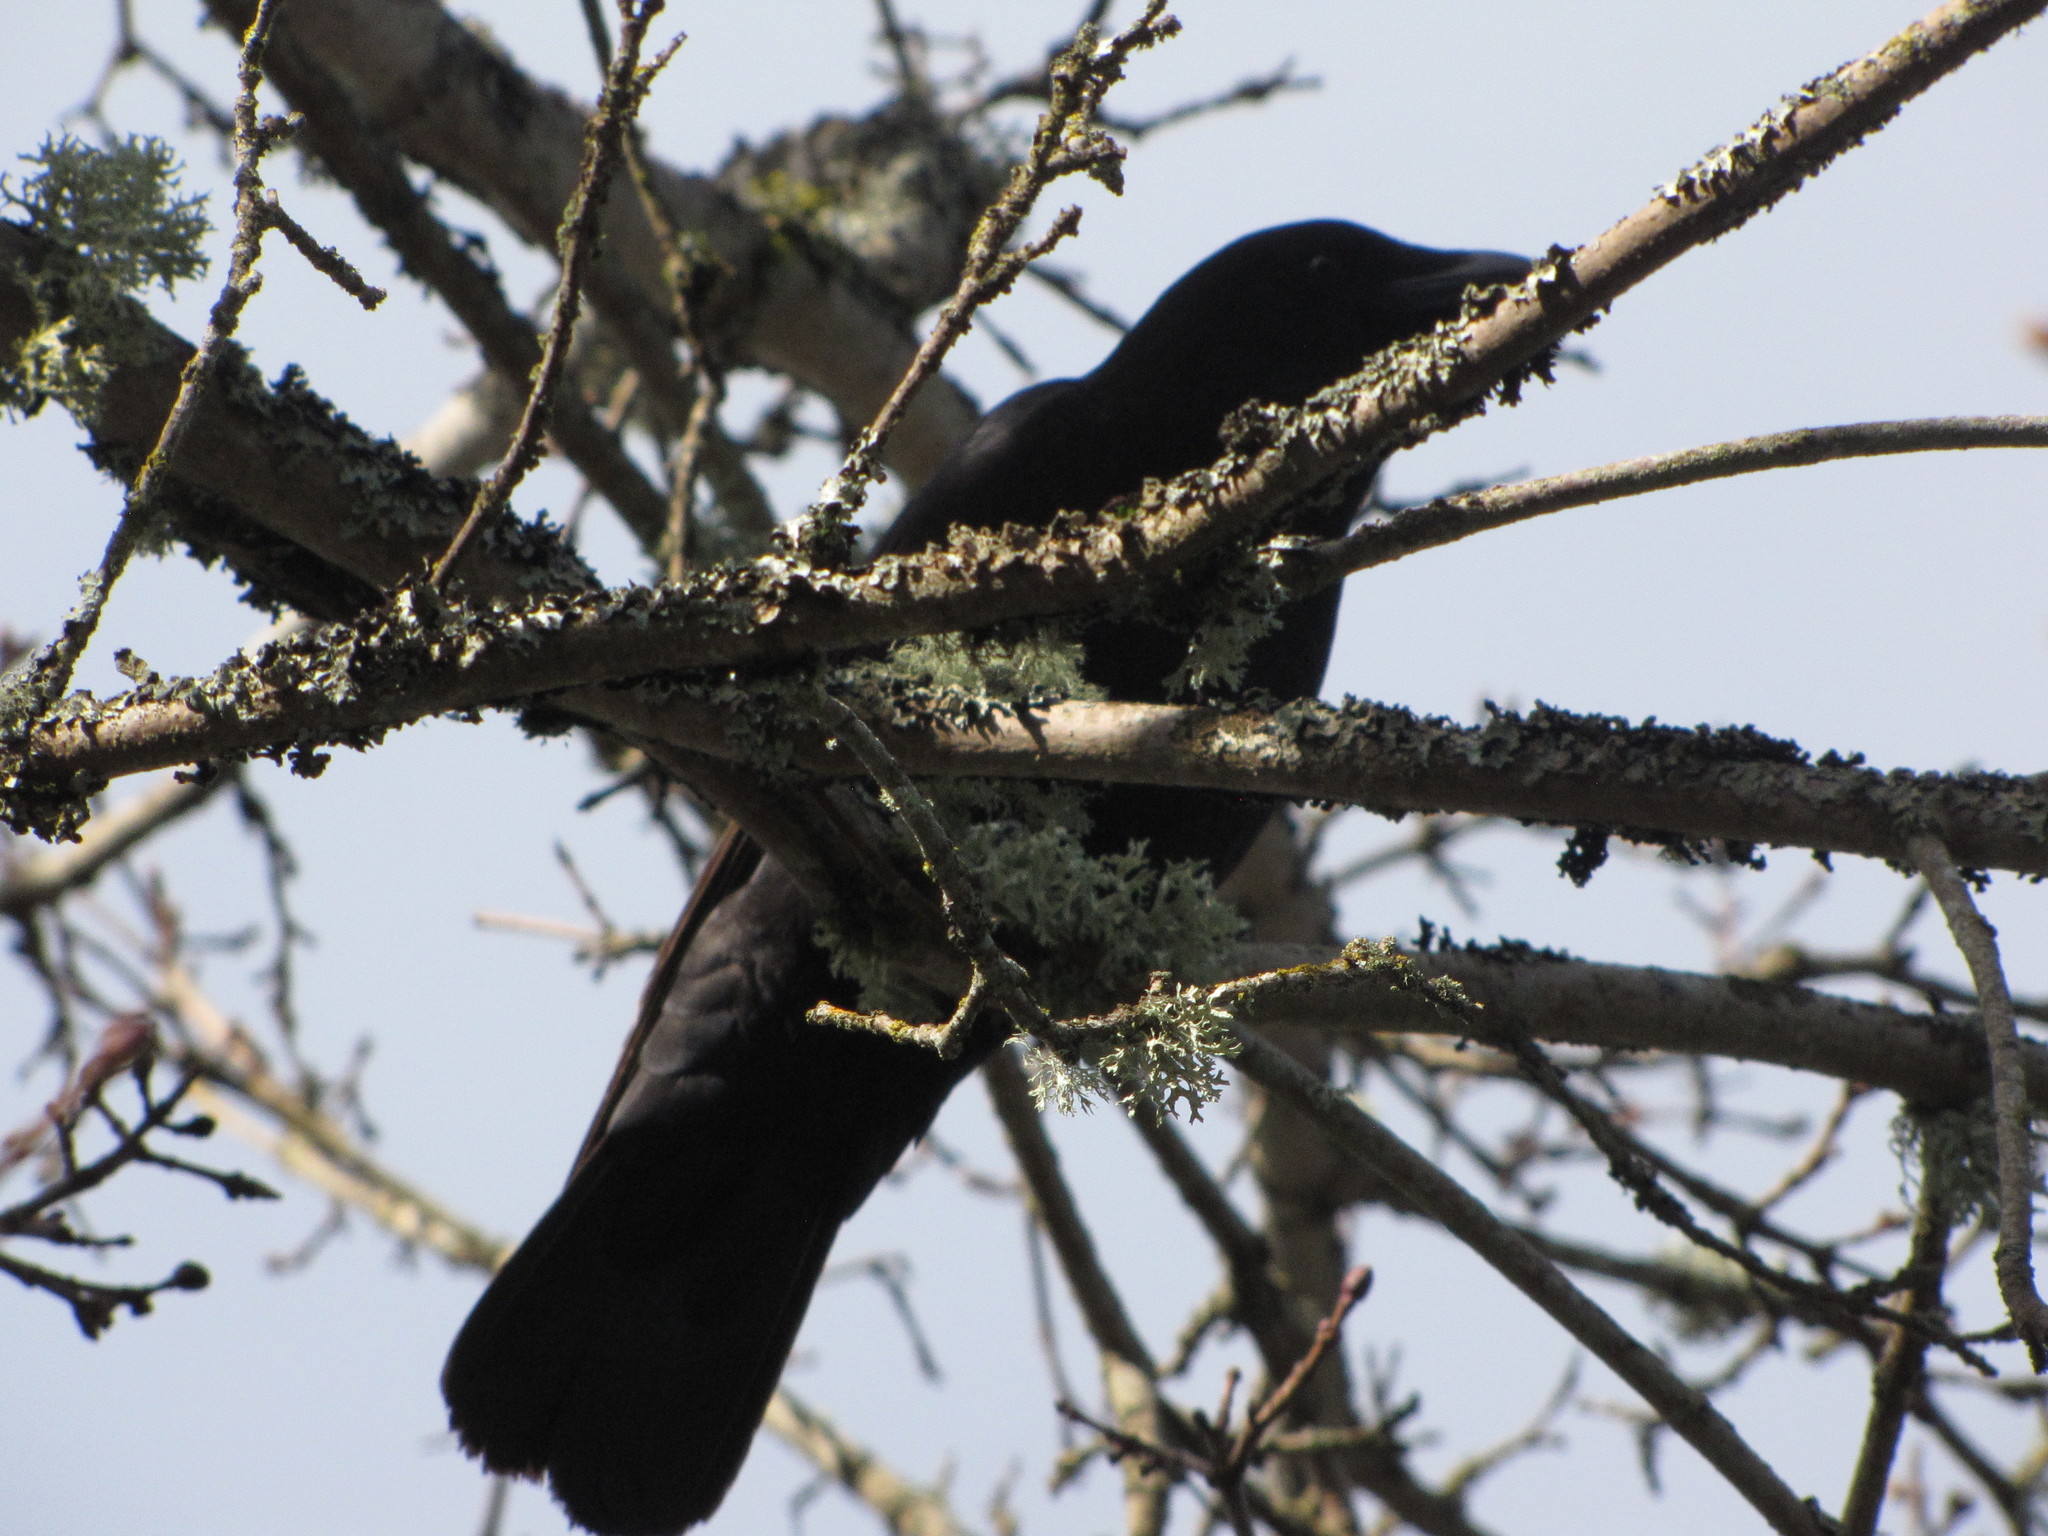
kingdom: Animalia
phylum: Chordata
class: Aves
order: Passeriformes
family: Corvidae
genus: Corvus
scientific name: Corvus brachyrhynchos
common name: American crow
